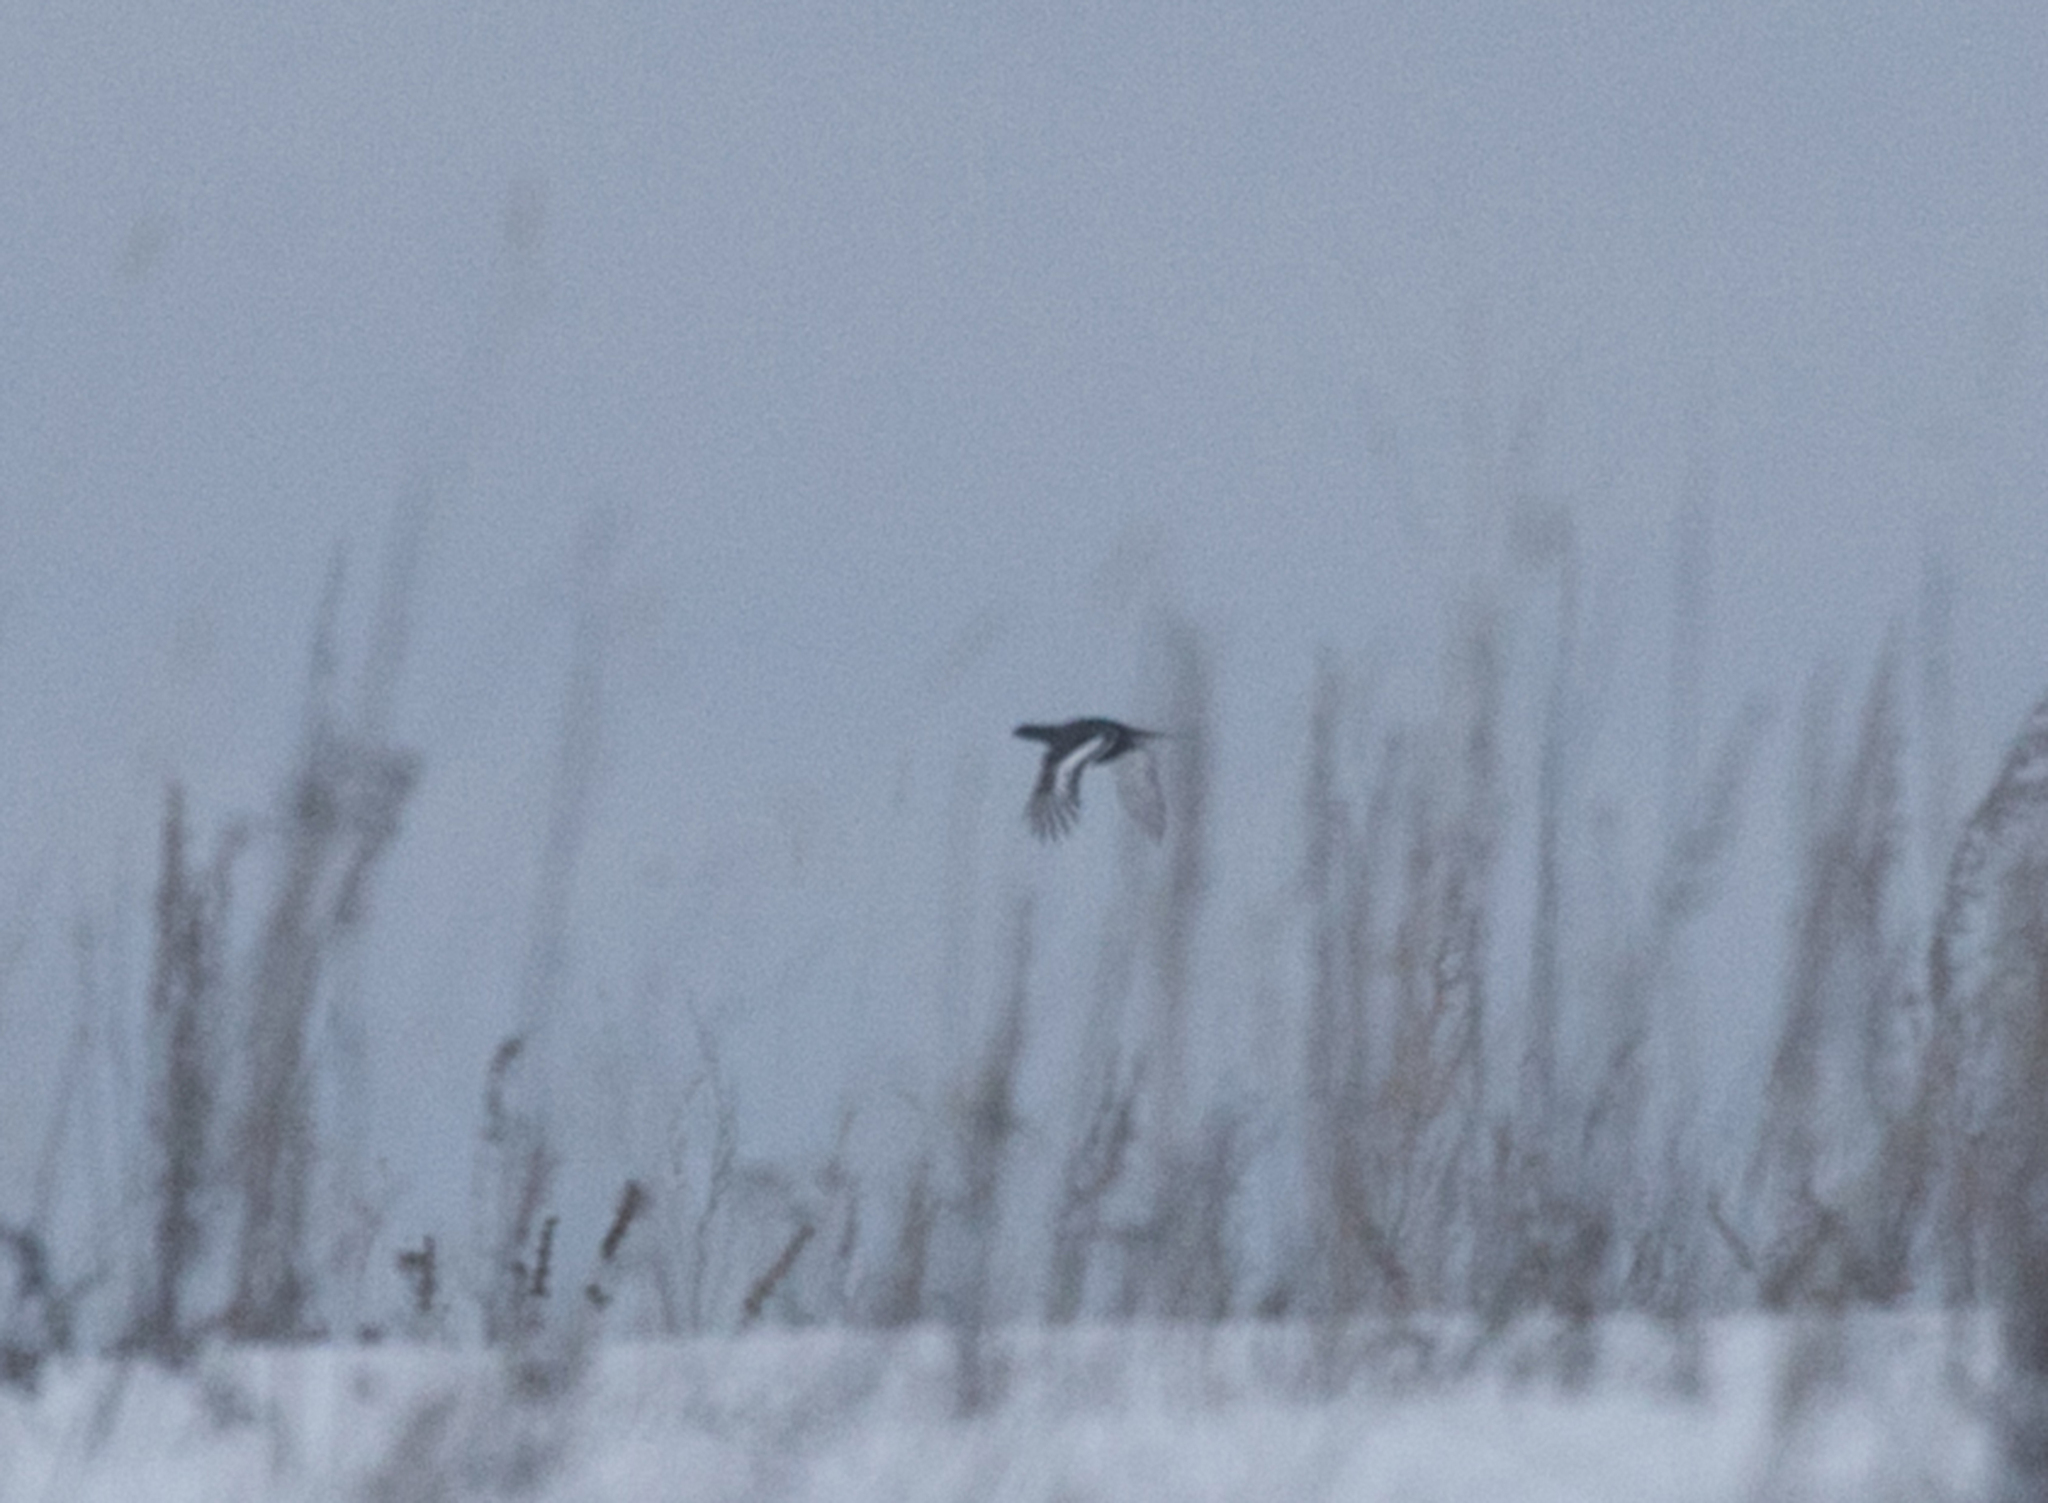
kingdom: Animalia
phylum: Chordata
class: Aves
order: Galliformes
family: Phasianidae
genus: Lyrurus
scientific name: Lyrurus tetrix
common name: Black grouse
